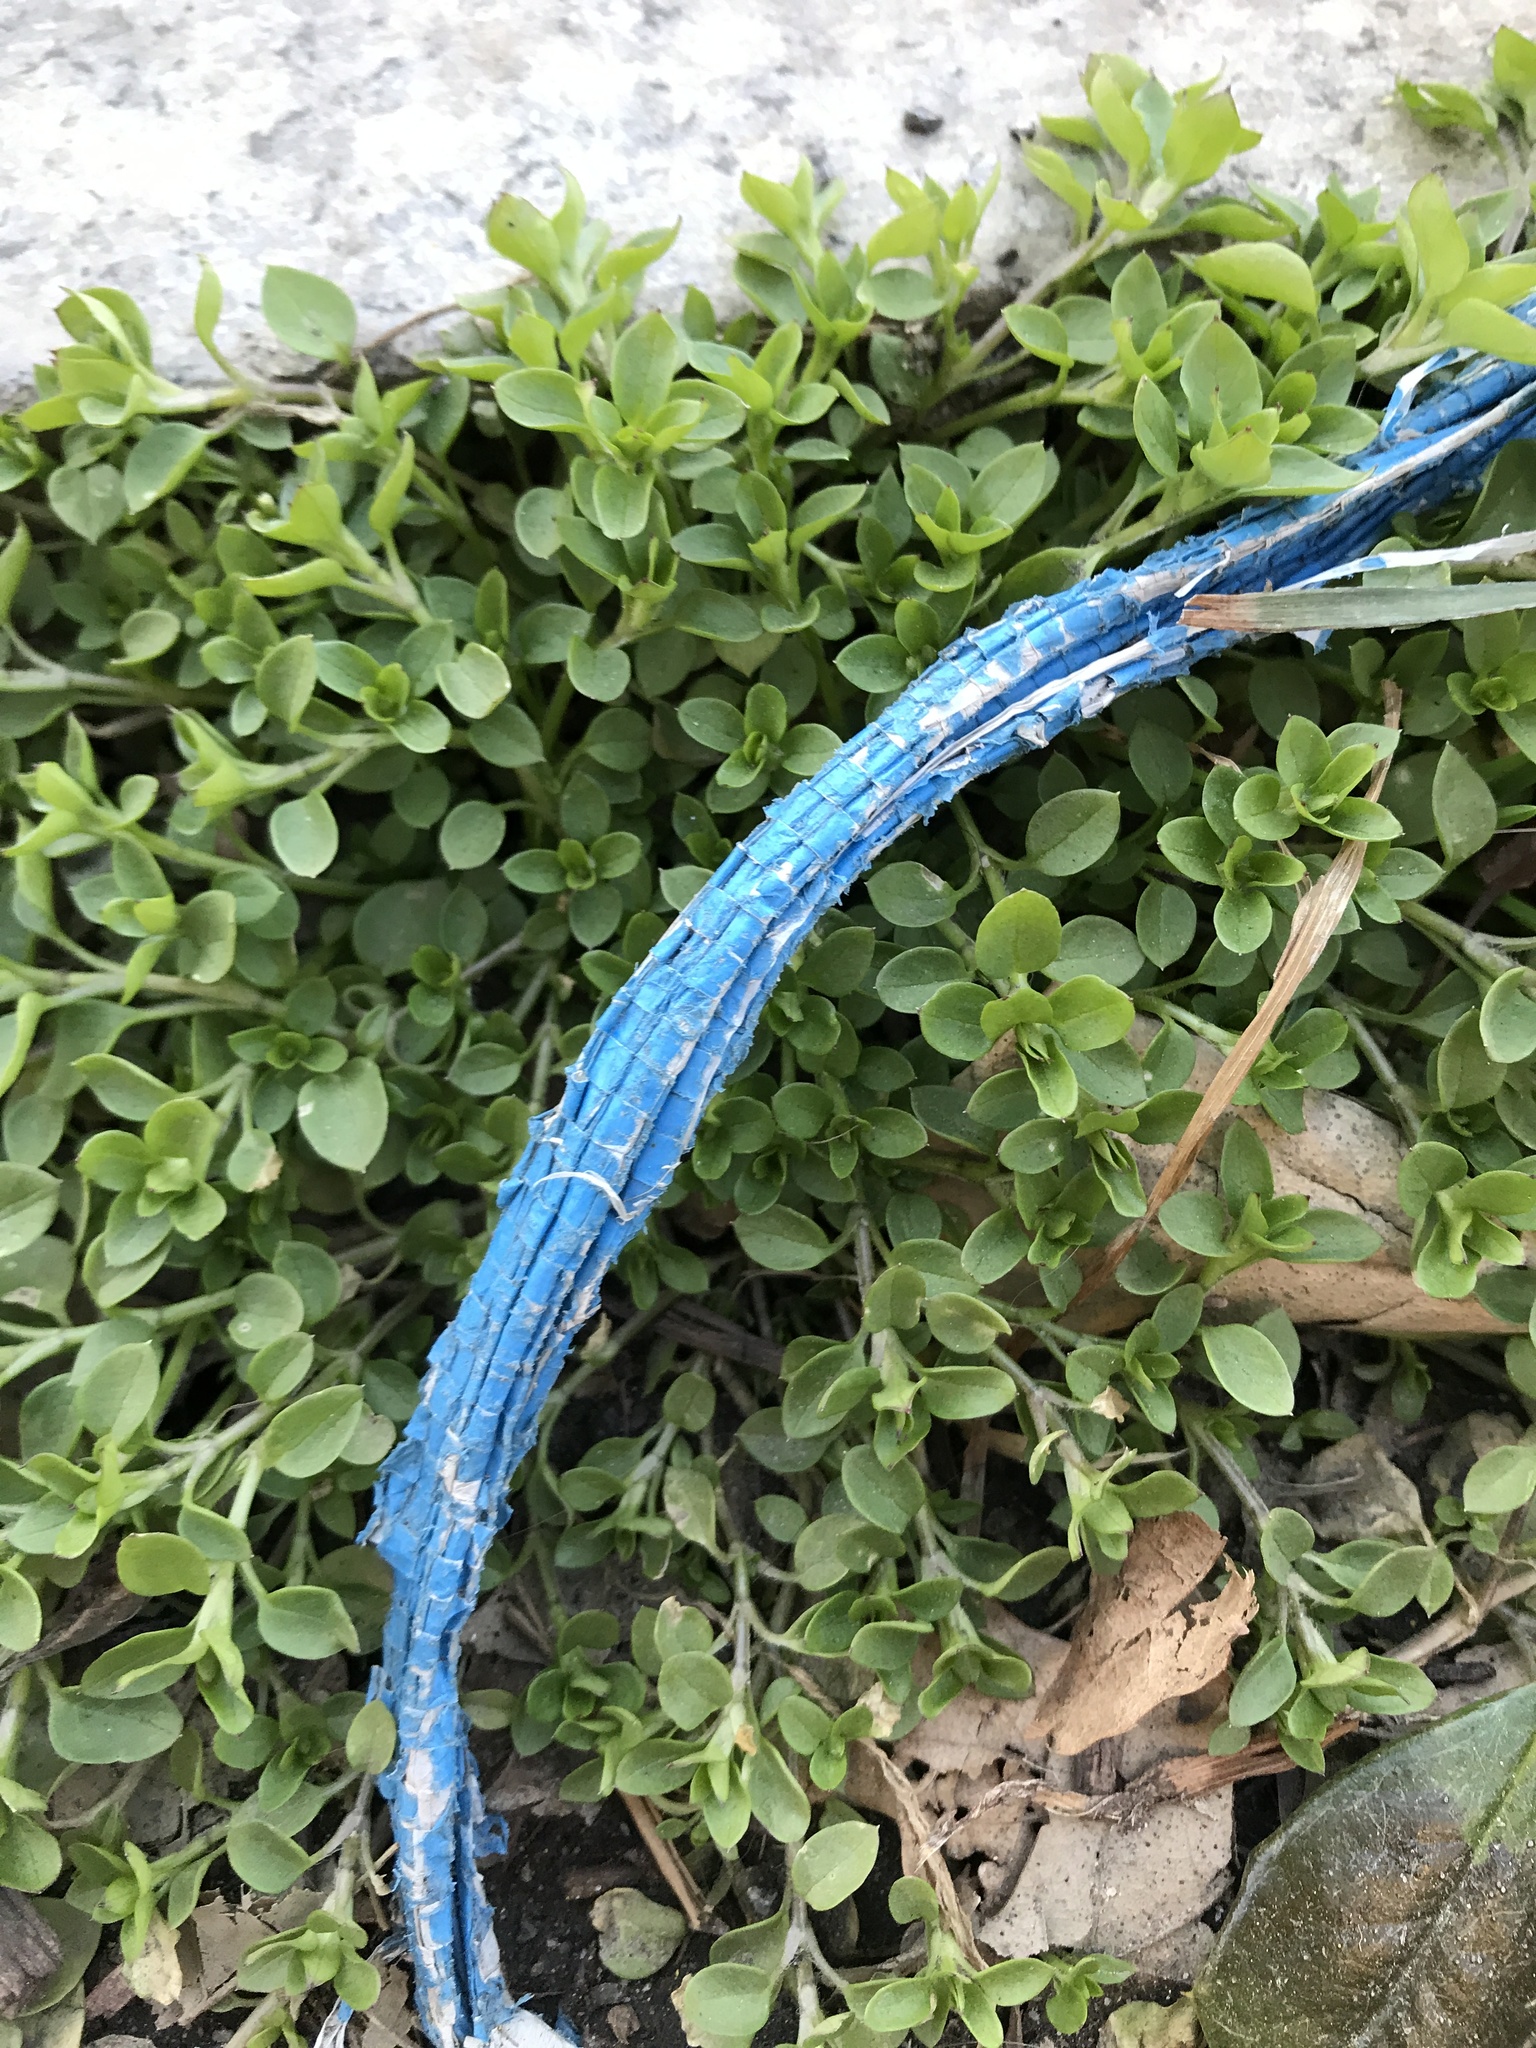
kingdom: Plantae
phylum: Tracheophyta
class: Magnoliopsida
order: Caryophyllales
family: Caryophyllaceae
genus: Stellaria
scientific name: Stellaria media
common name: Common chickweed
